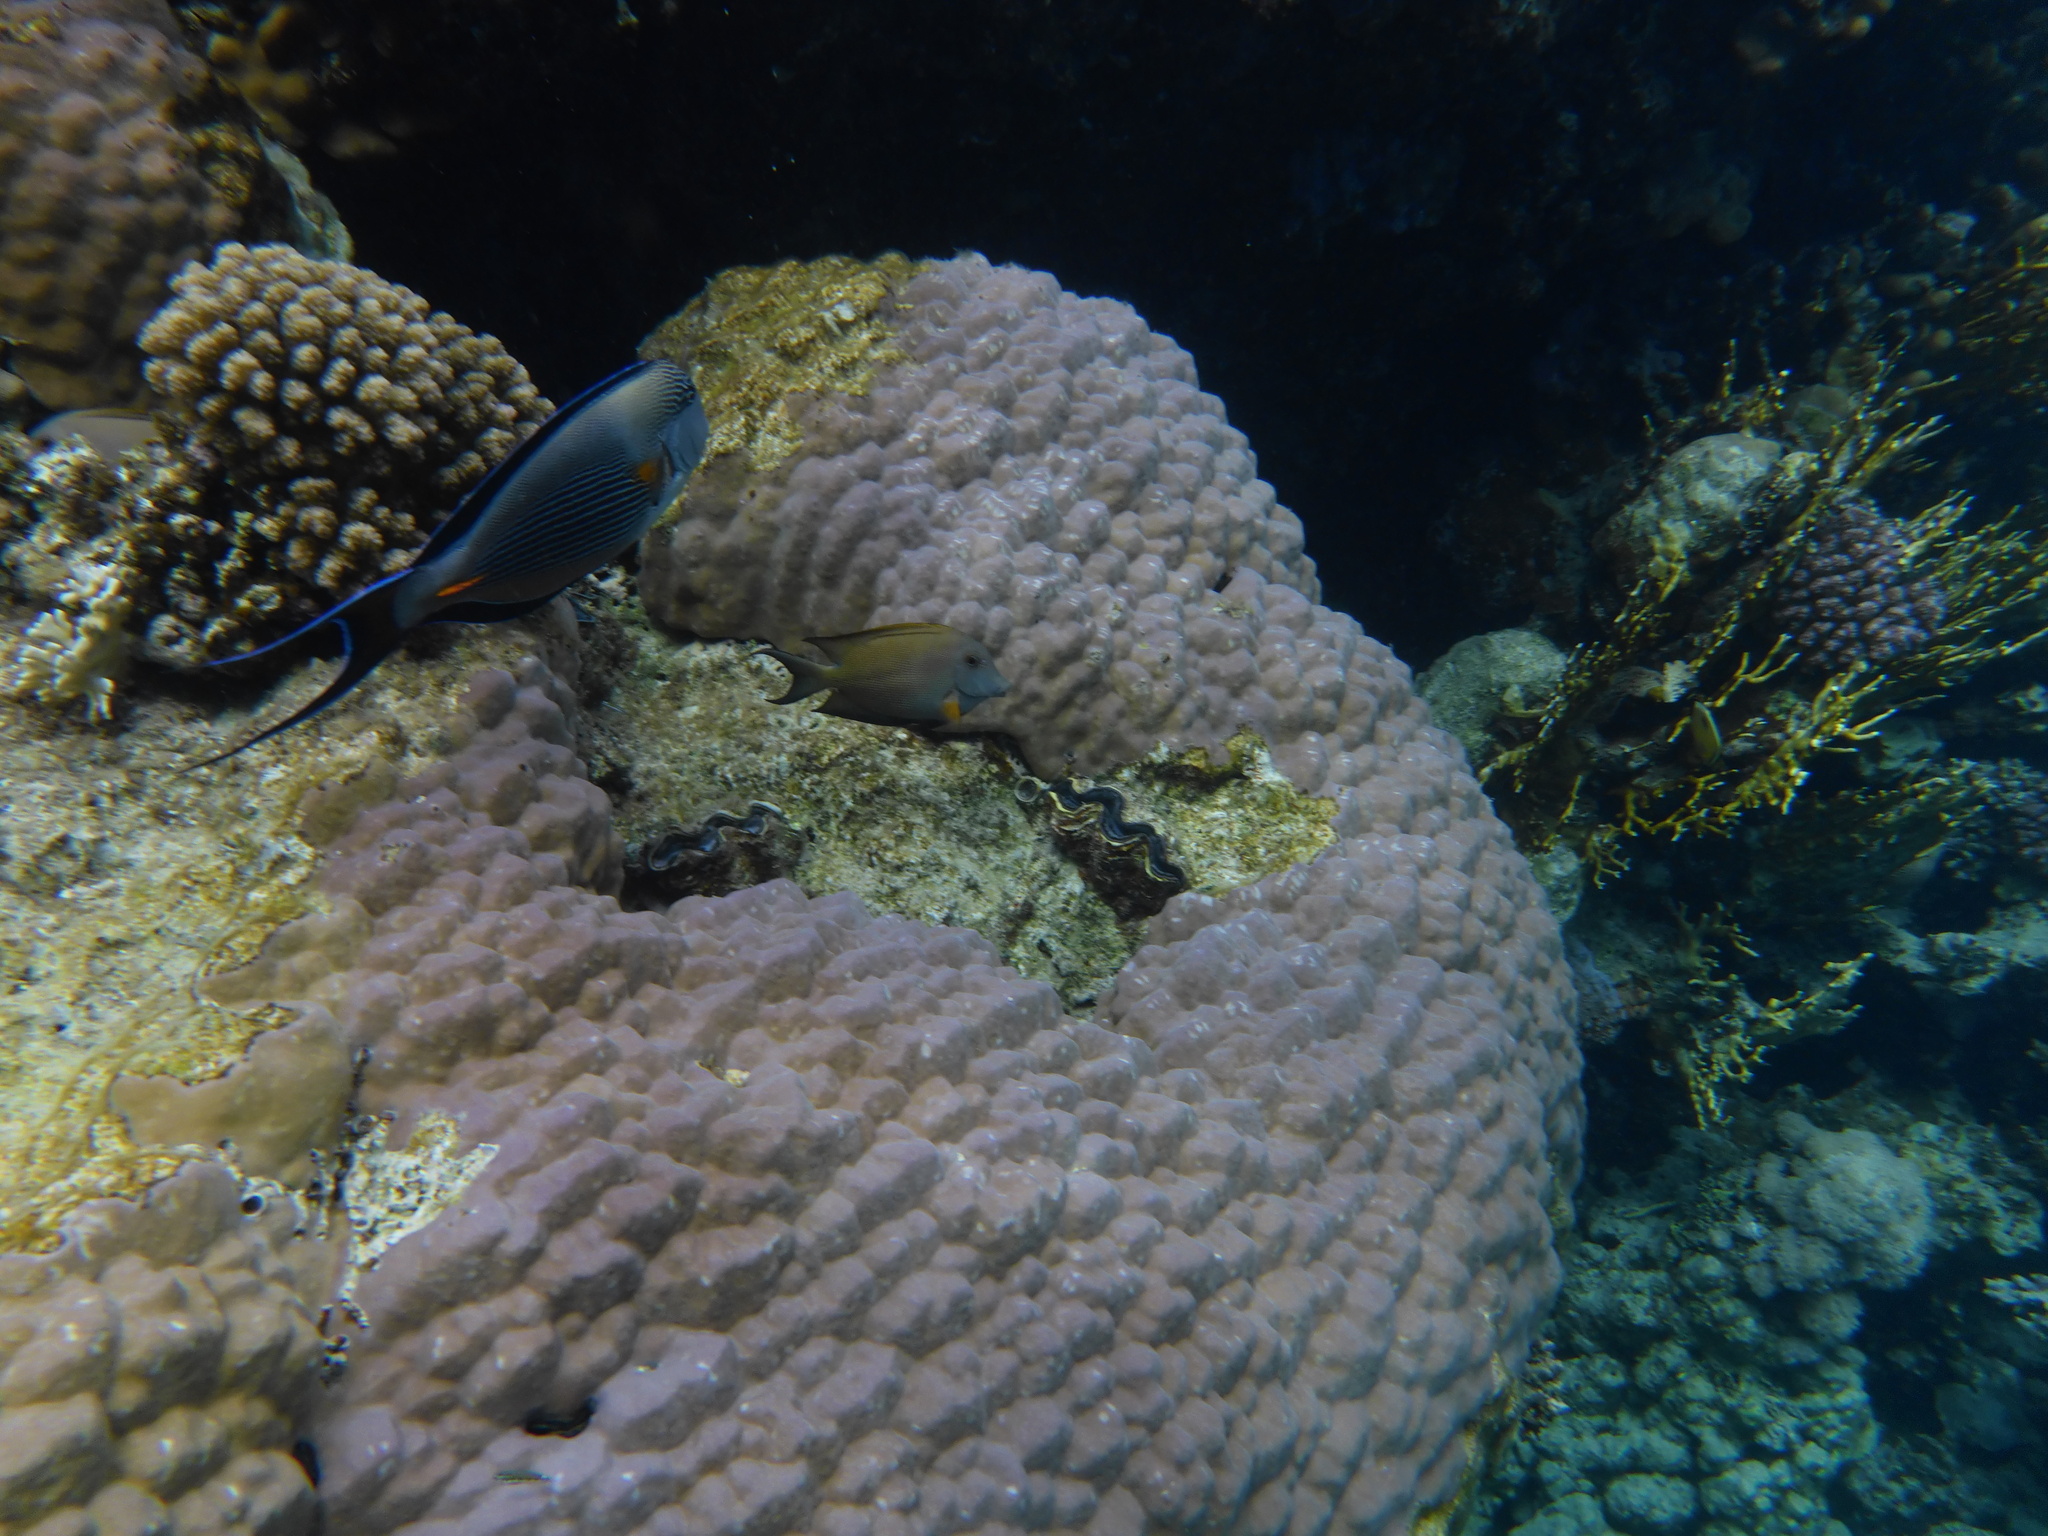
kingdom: Animalia
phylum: Chordata
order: Perciformes
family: Acanthuridae
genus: Ctenochaetus
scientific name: Ctenochaetus striatus
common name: Bristle-toothed surgeonfish
